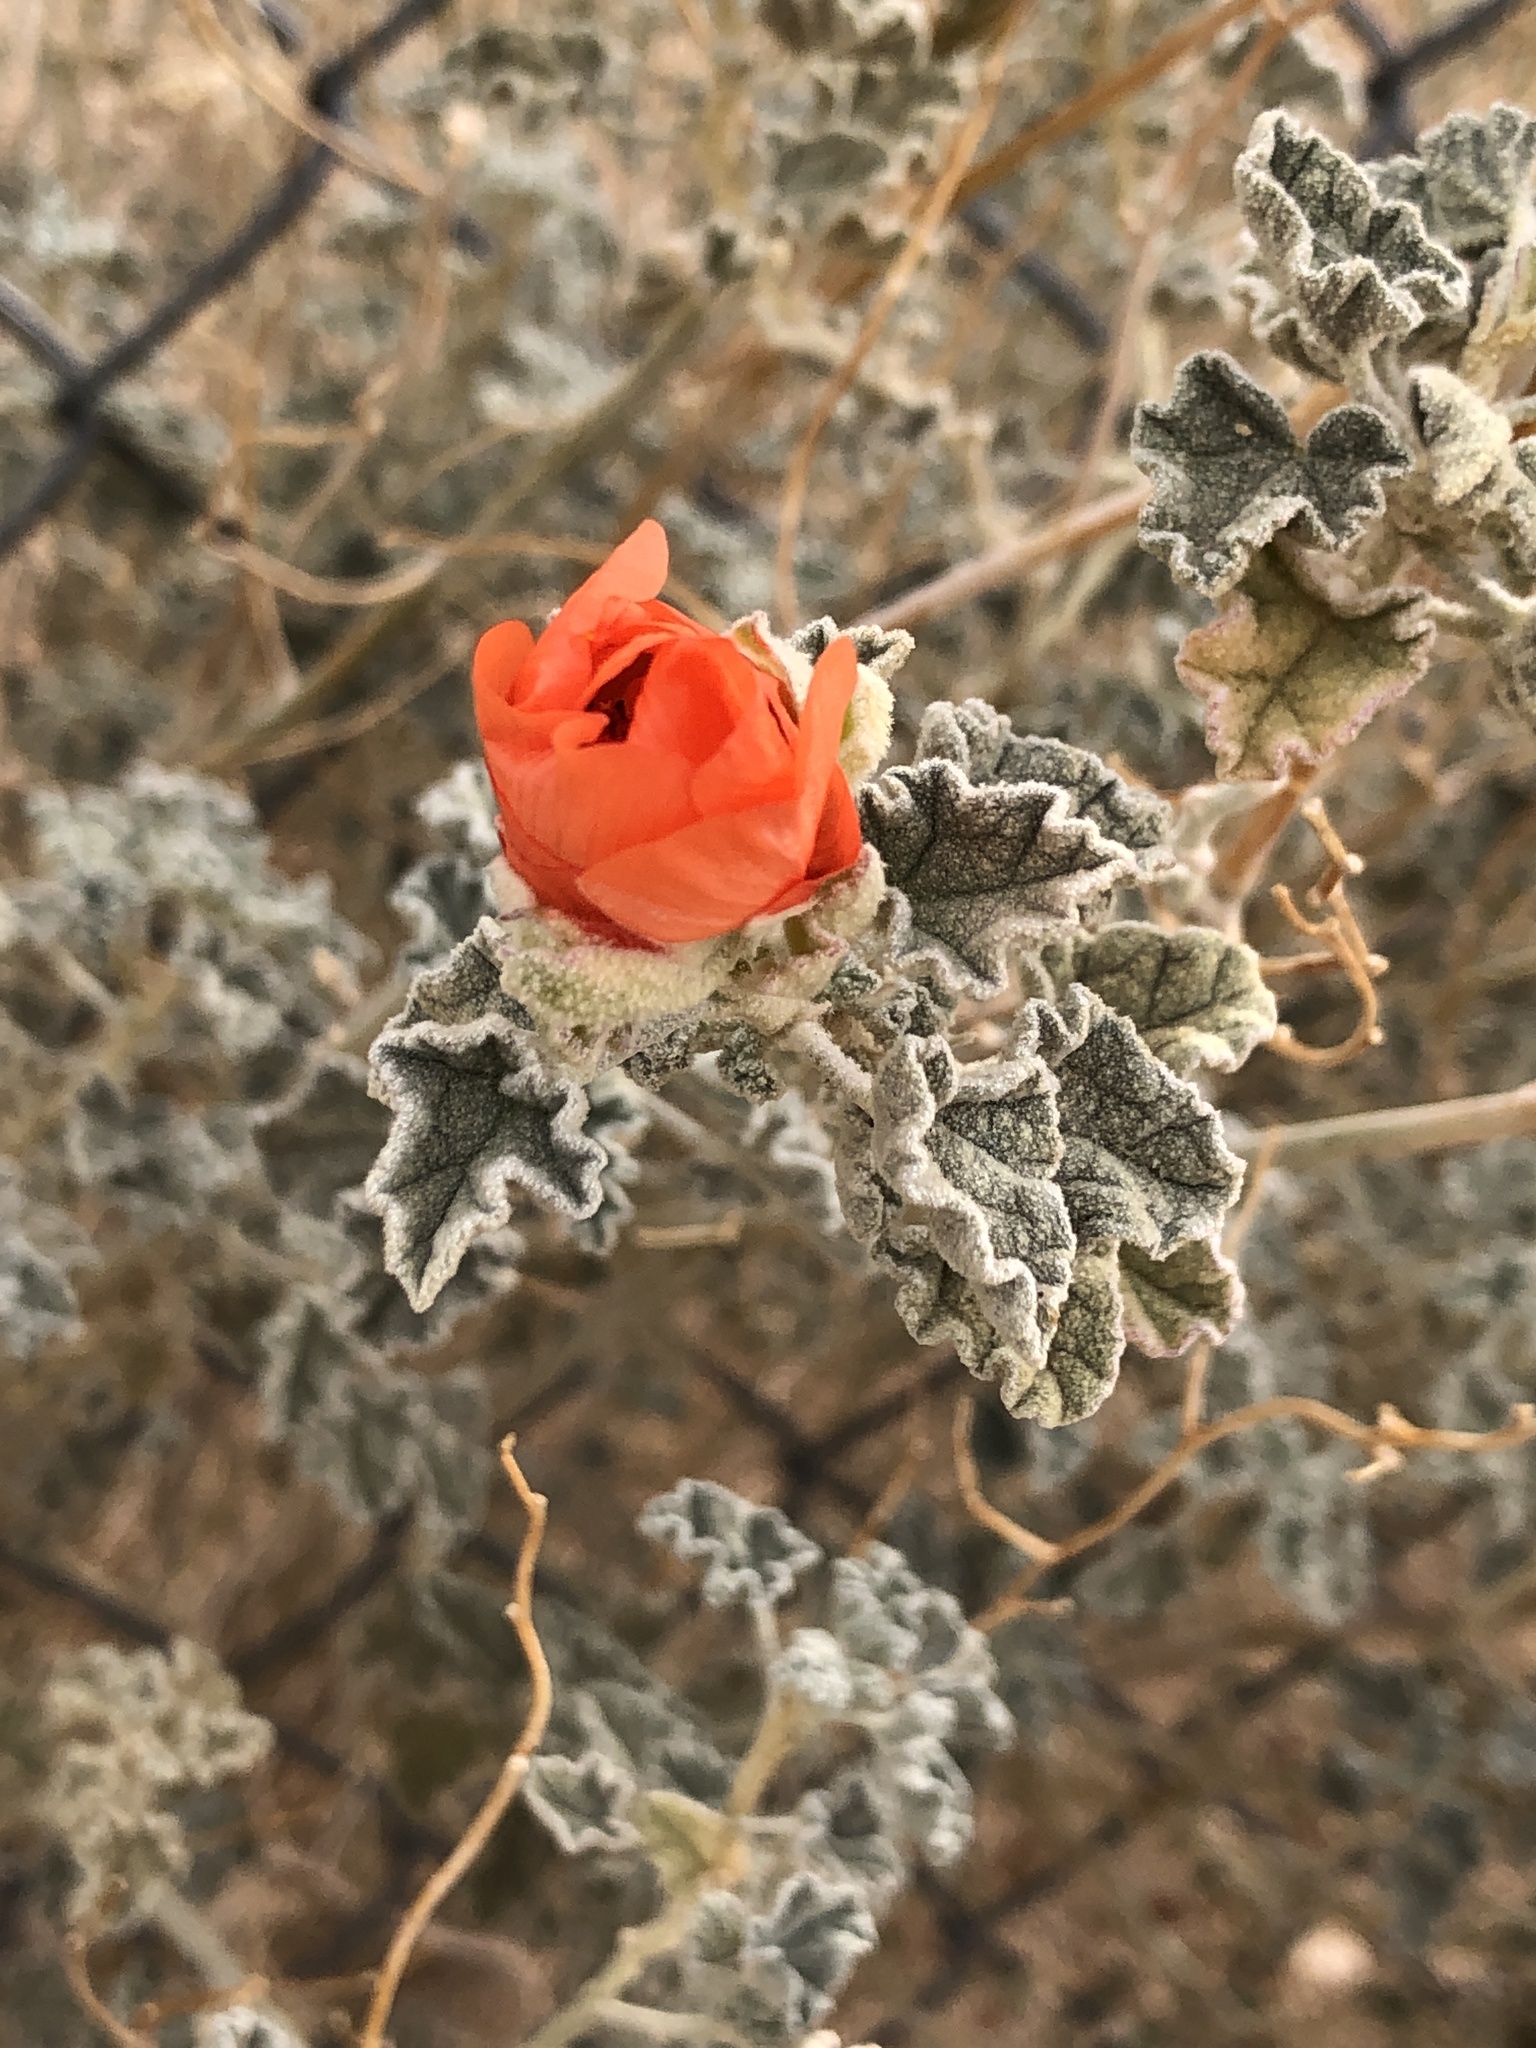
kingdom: Plantae
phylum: Tracheophyta
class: Magnoliopsida
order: Malvales
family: Malvaceae
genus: Sphaeralcea
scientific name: Sphaeralcea ambigua
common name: Apricot globe-mallow
